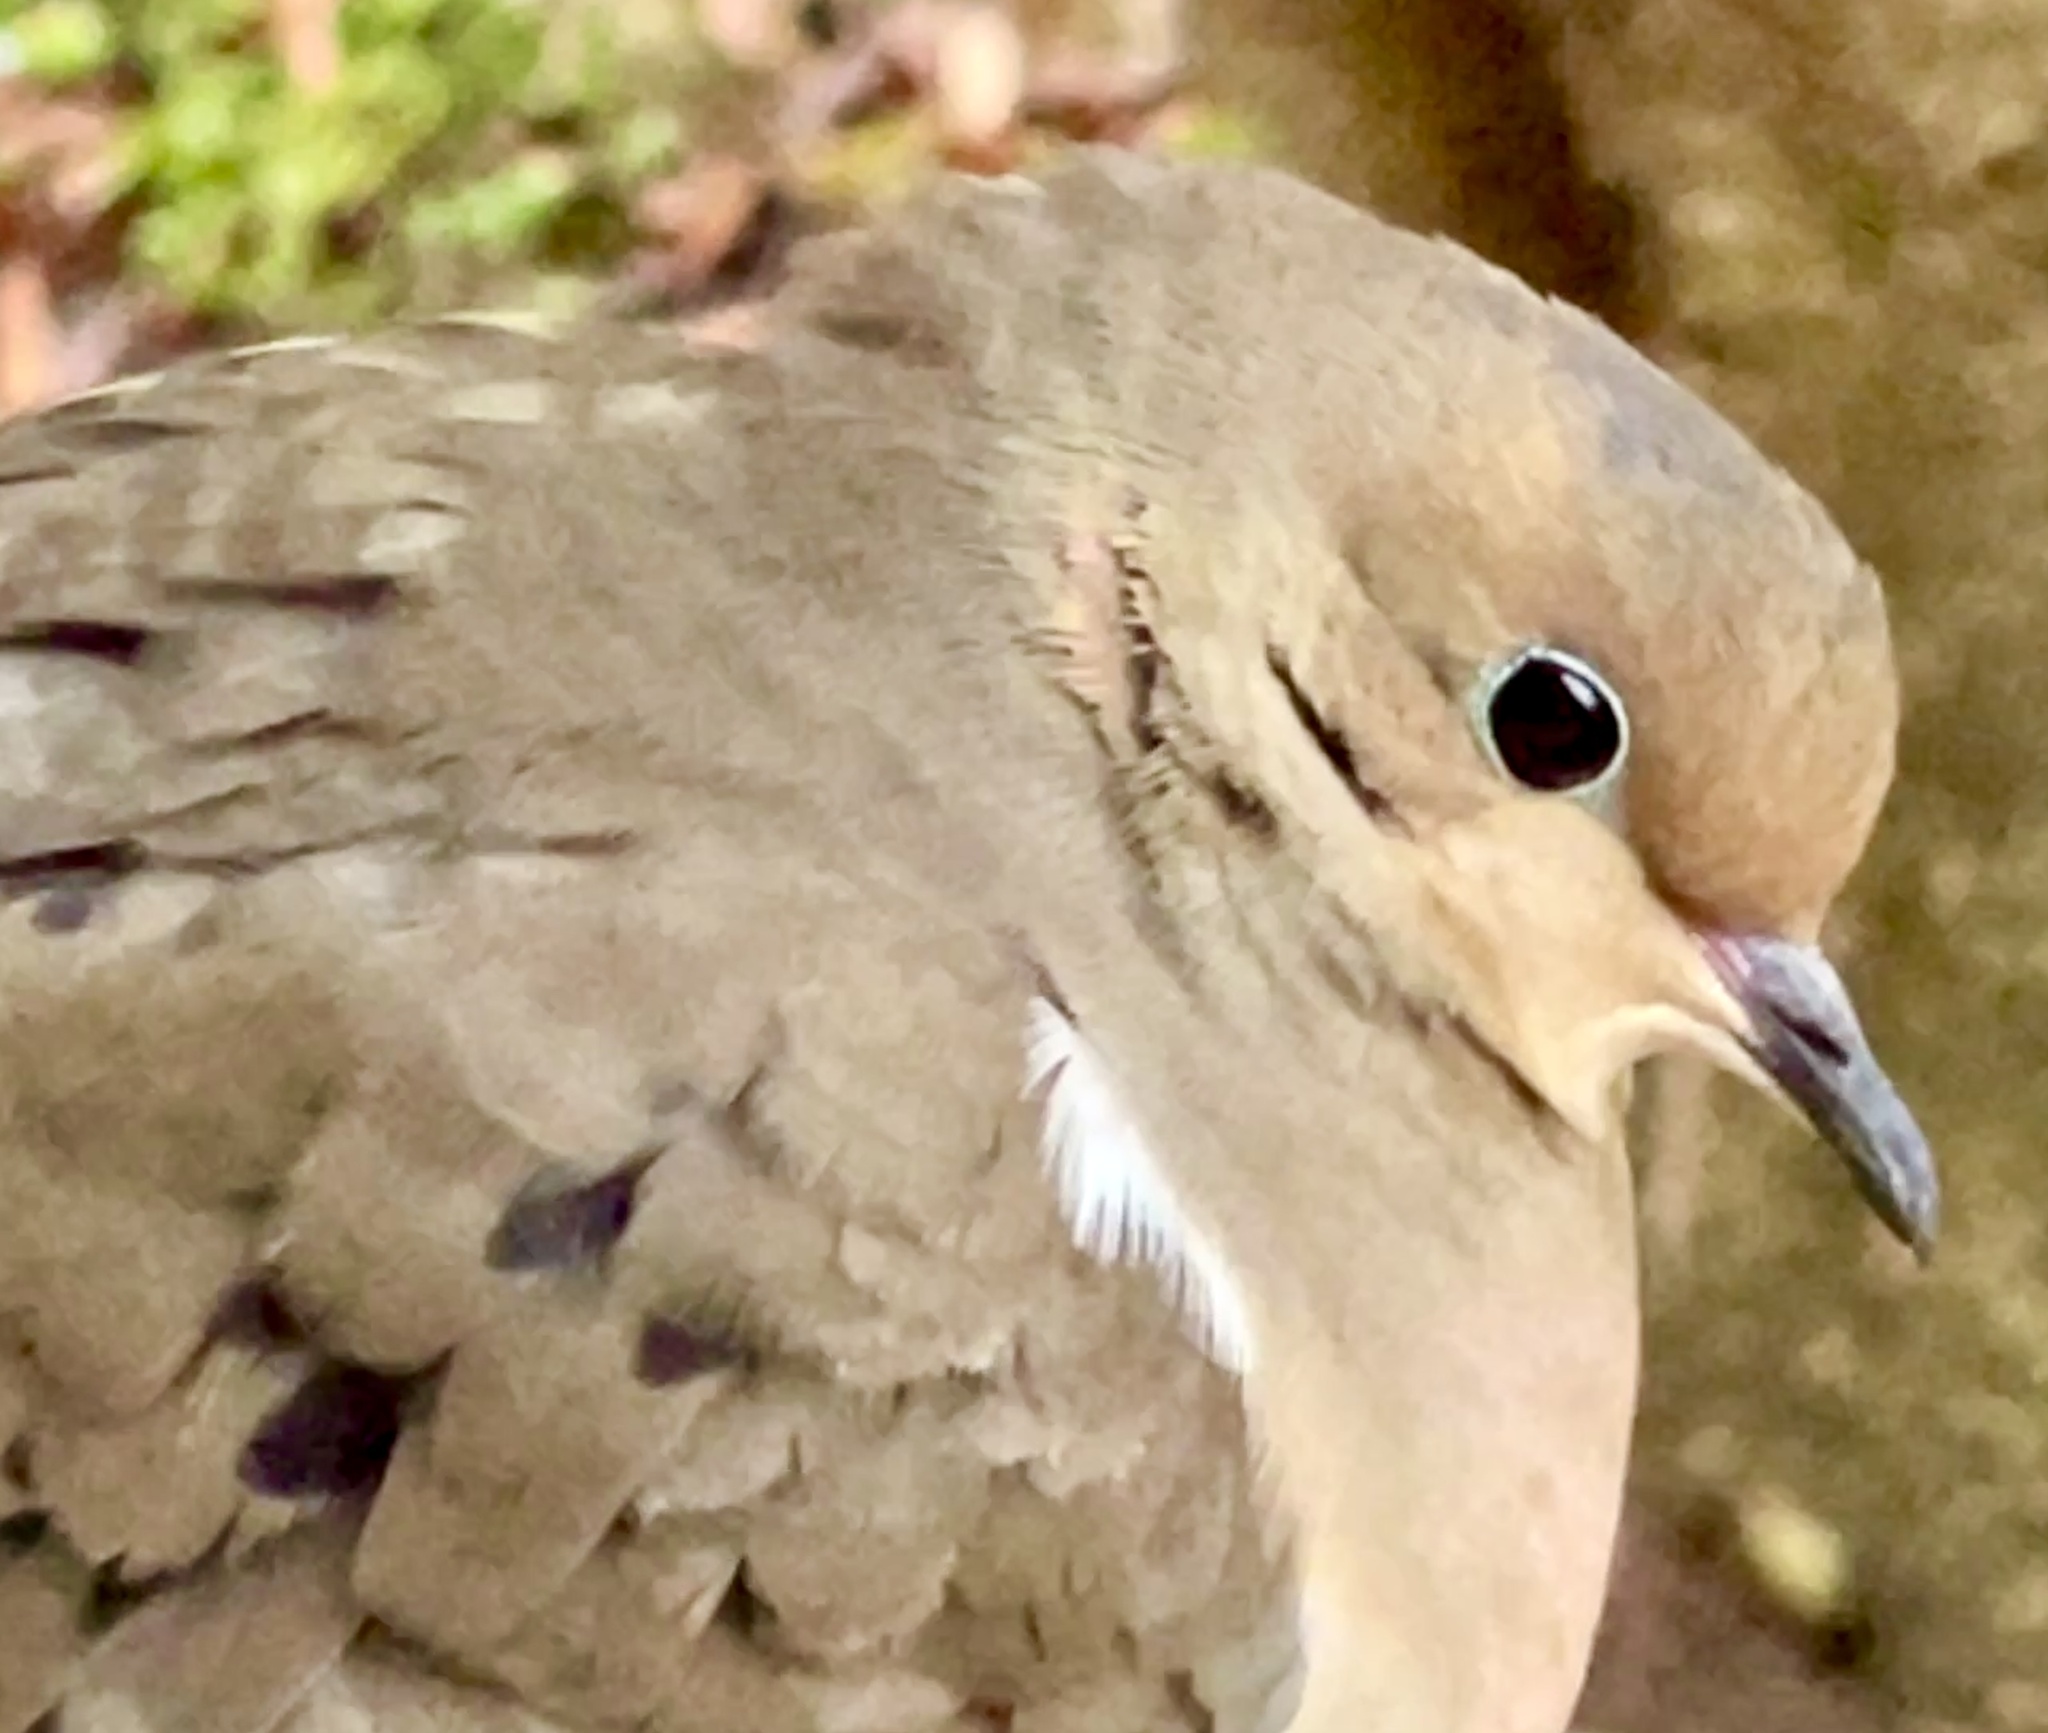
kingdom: Animalia
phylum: Chordata
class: Aves
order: Columbiformes
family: Columbidae
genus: Zenaida
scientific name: Zenaida macroura
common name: Mourning dove
